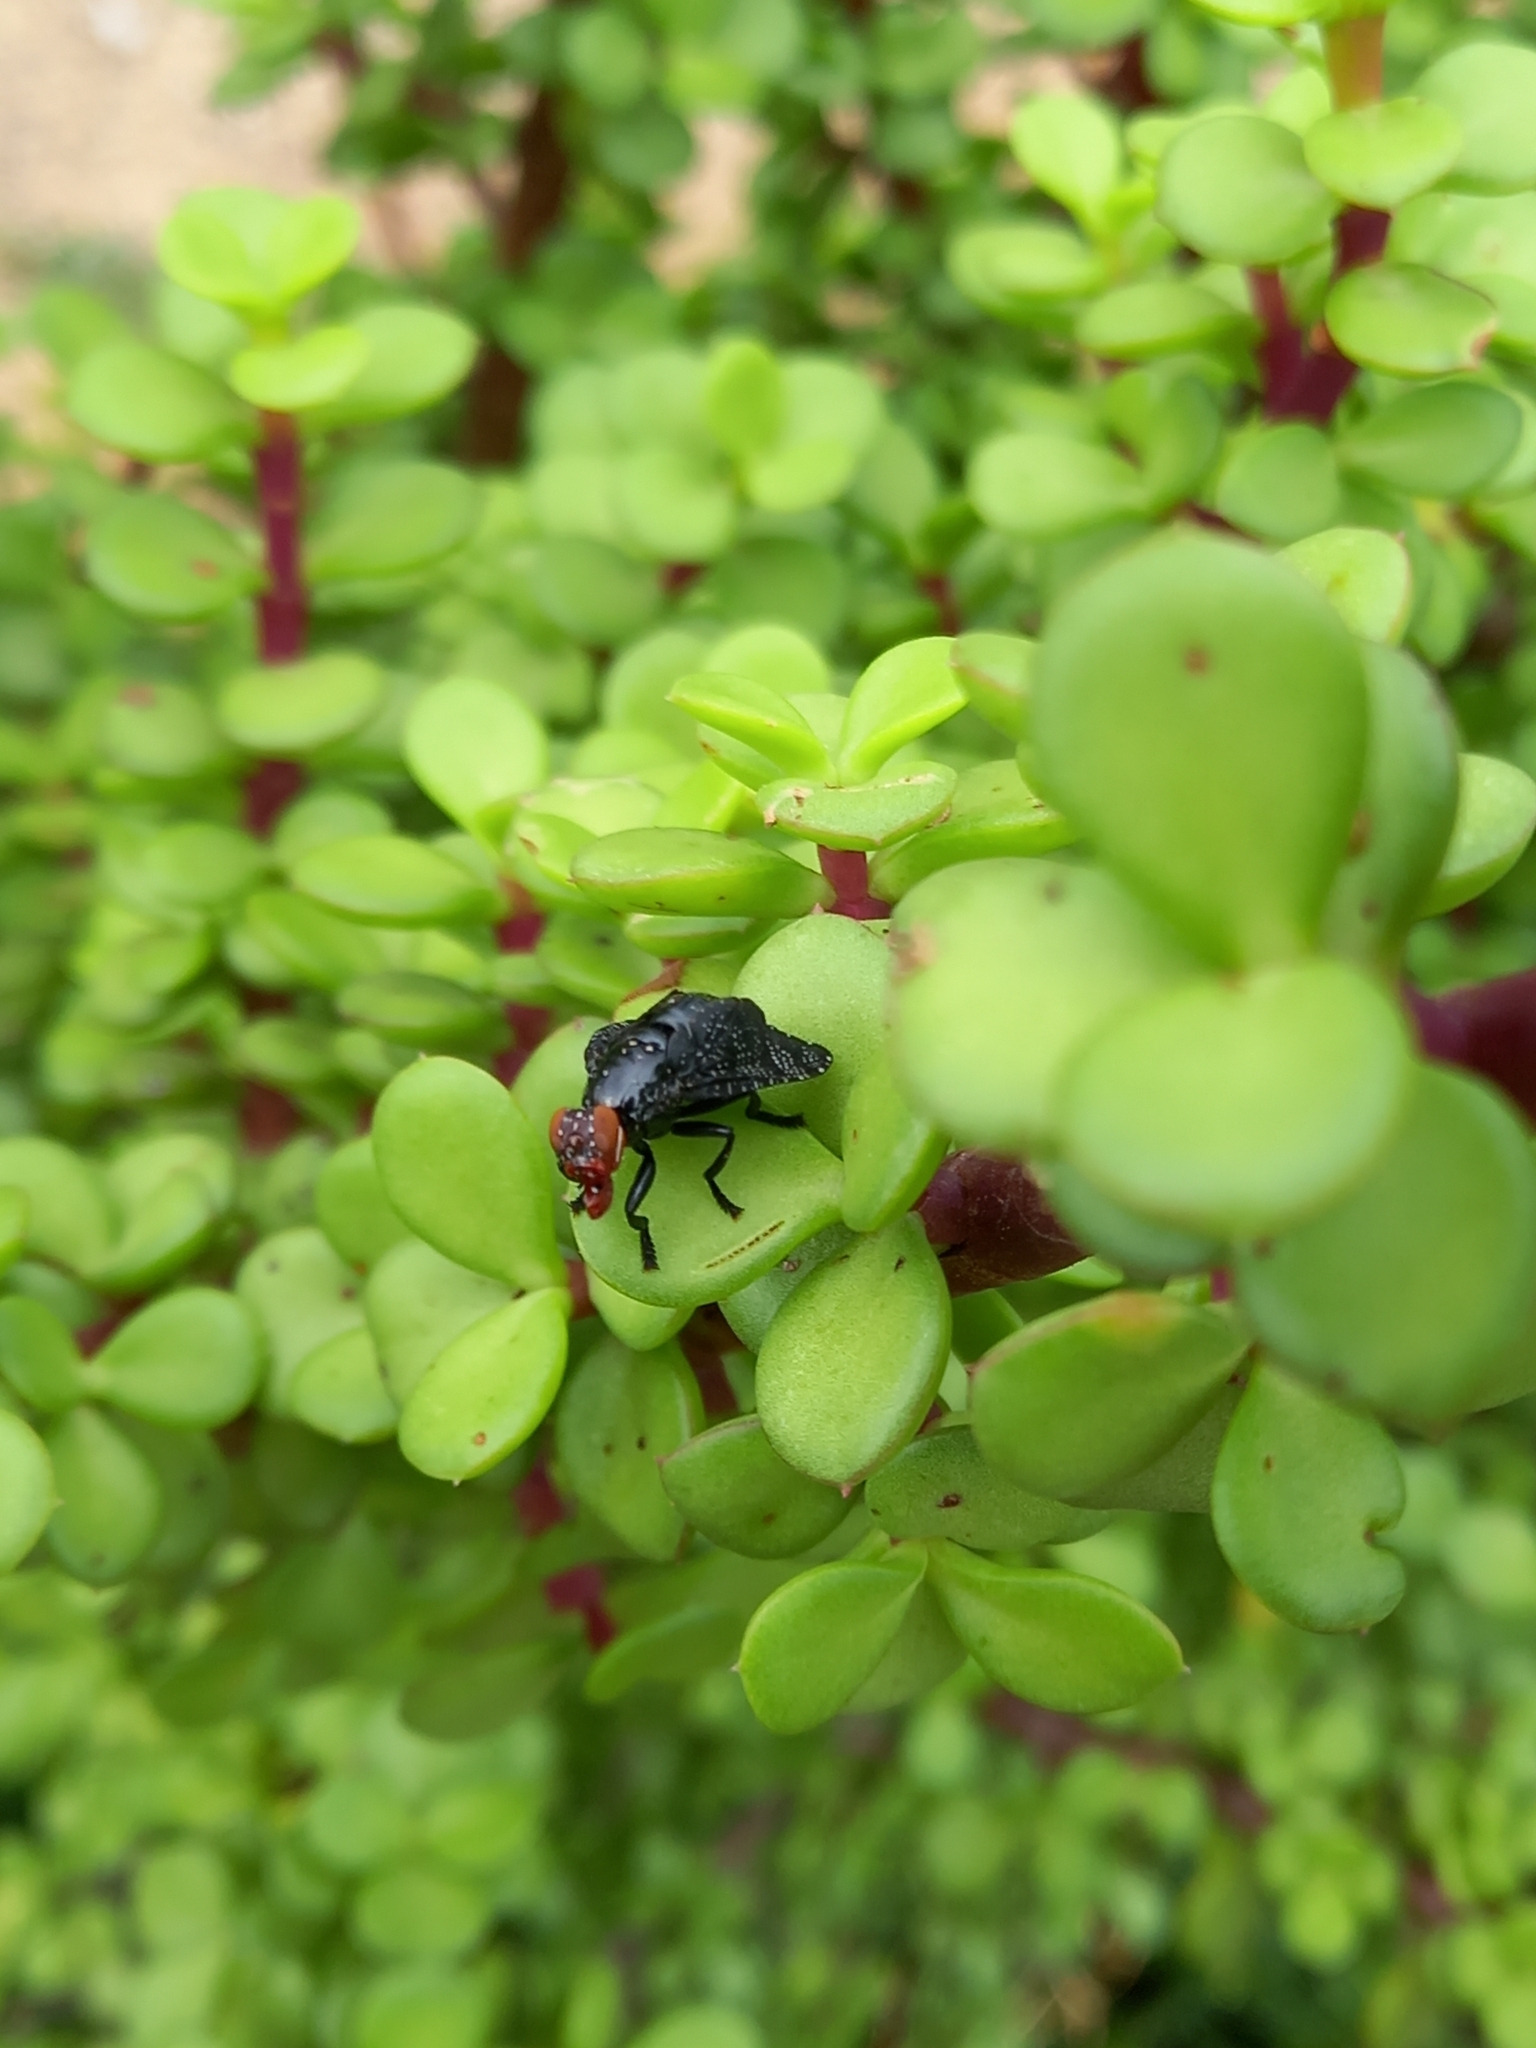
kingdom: Animalia
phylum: Arthropoda
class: Insecta
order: Diptera
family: Platystomatidae
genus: Palpomya
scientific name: Palpomya asphaltina
